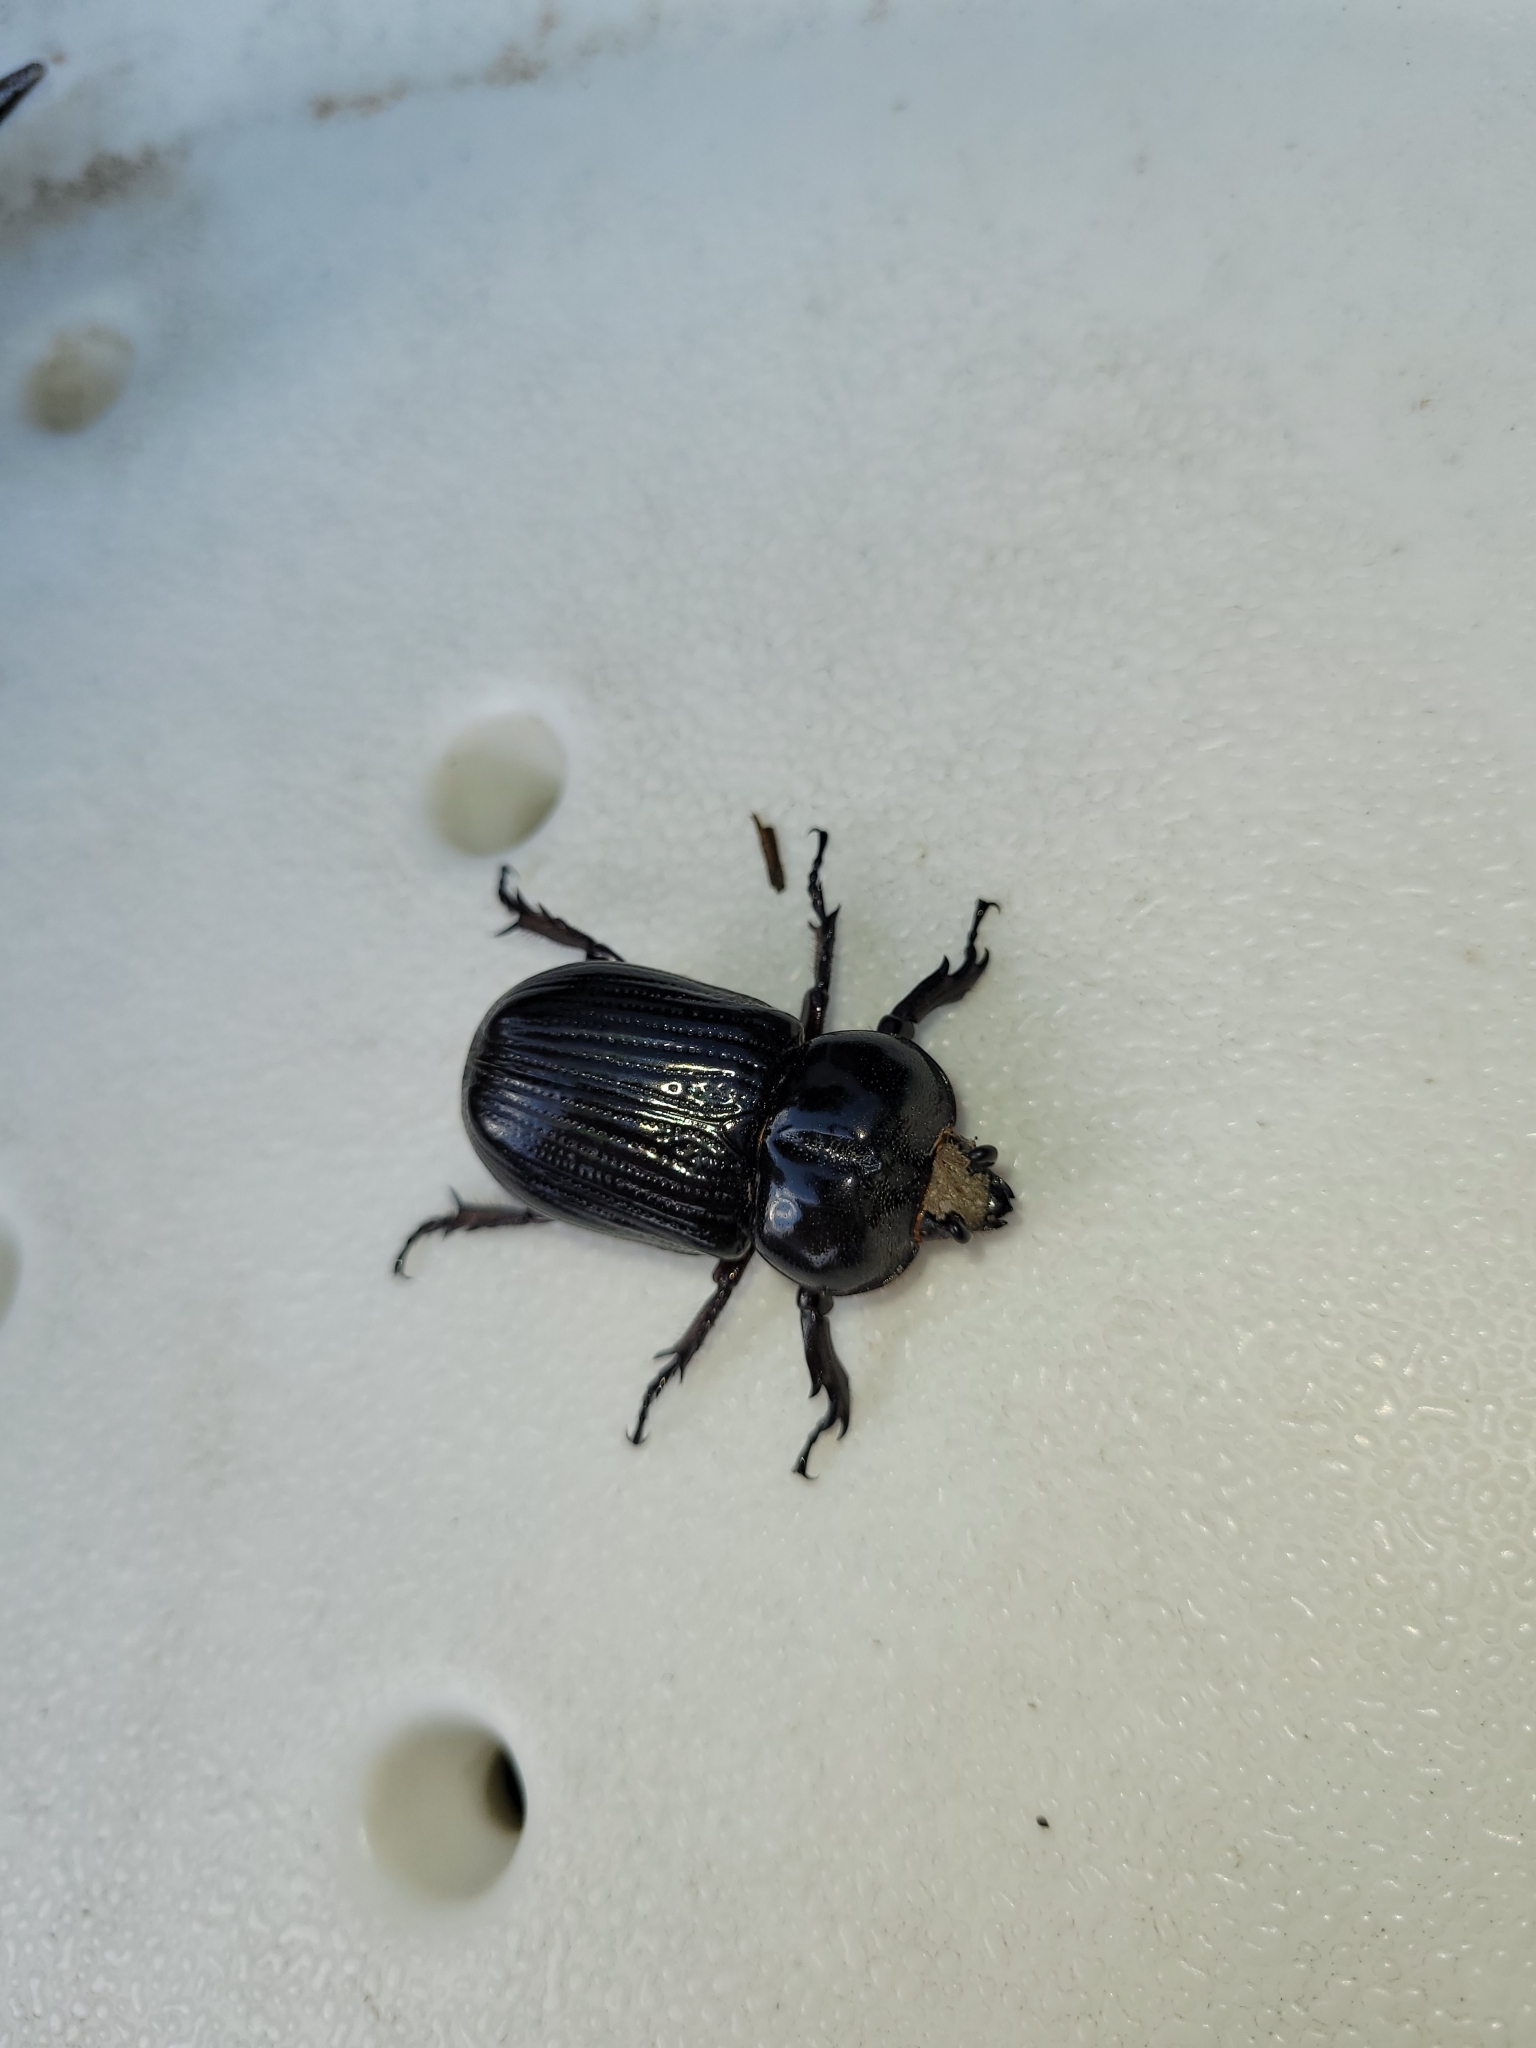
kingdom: Animalia
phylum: Arthropoda
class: Insecta
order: Coleoptera
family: Scarabaeidae
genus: Phileurus
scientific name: Phileurus truncatus
